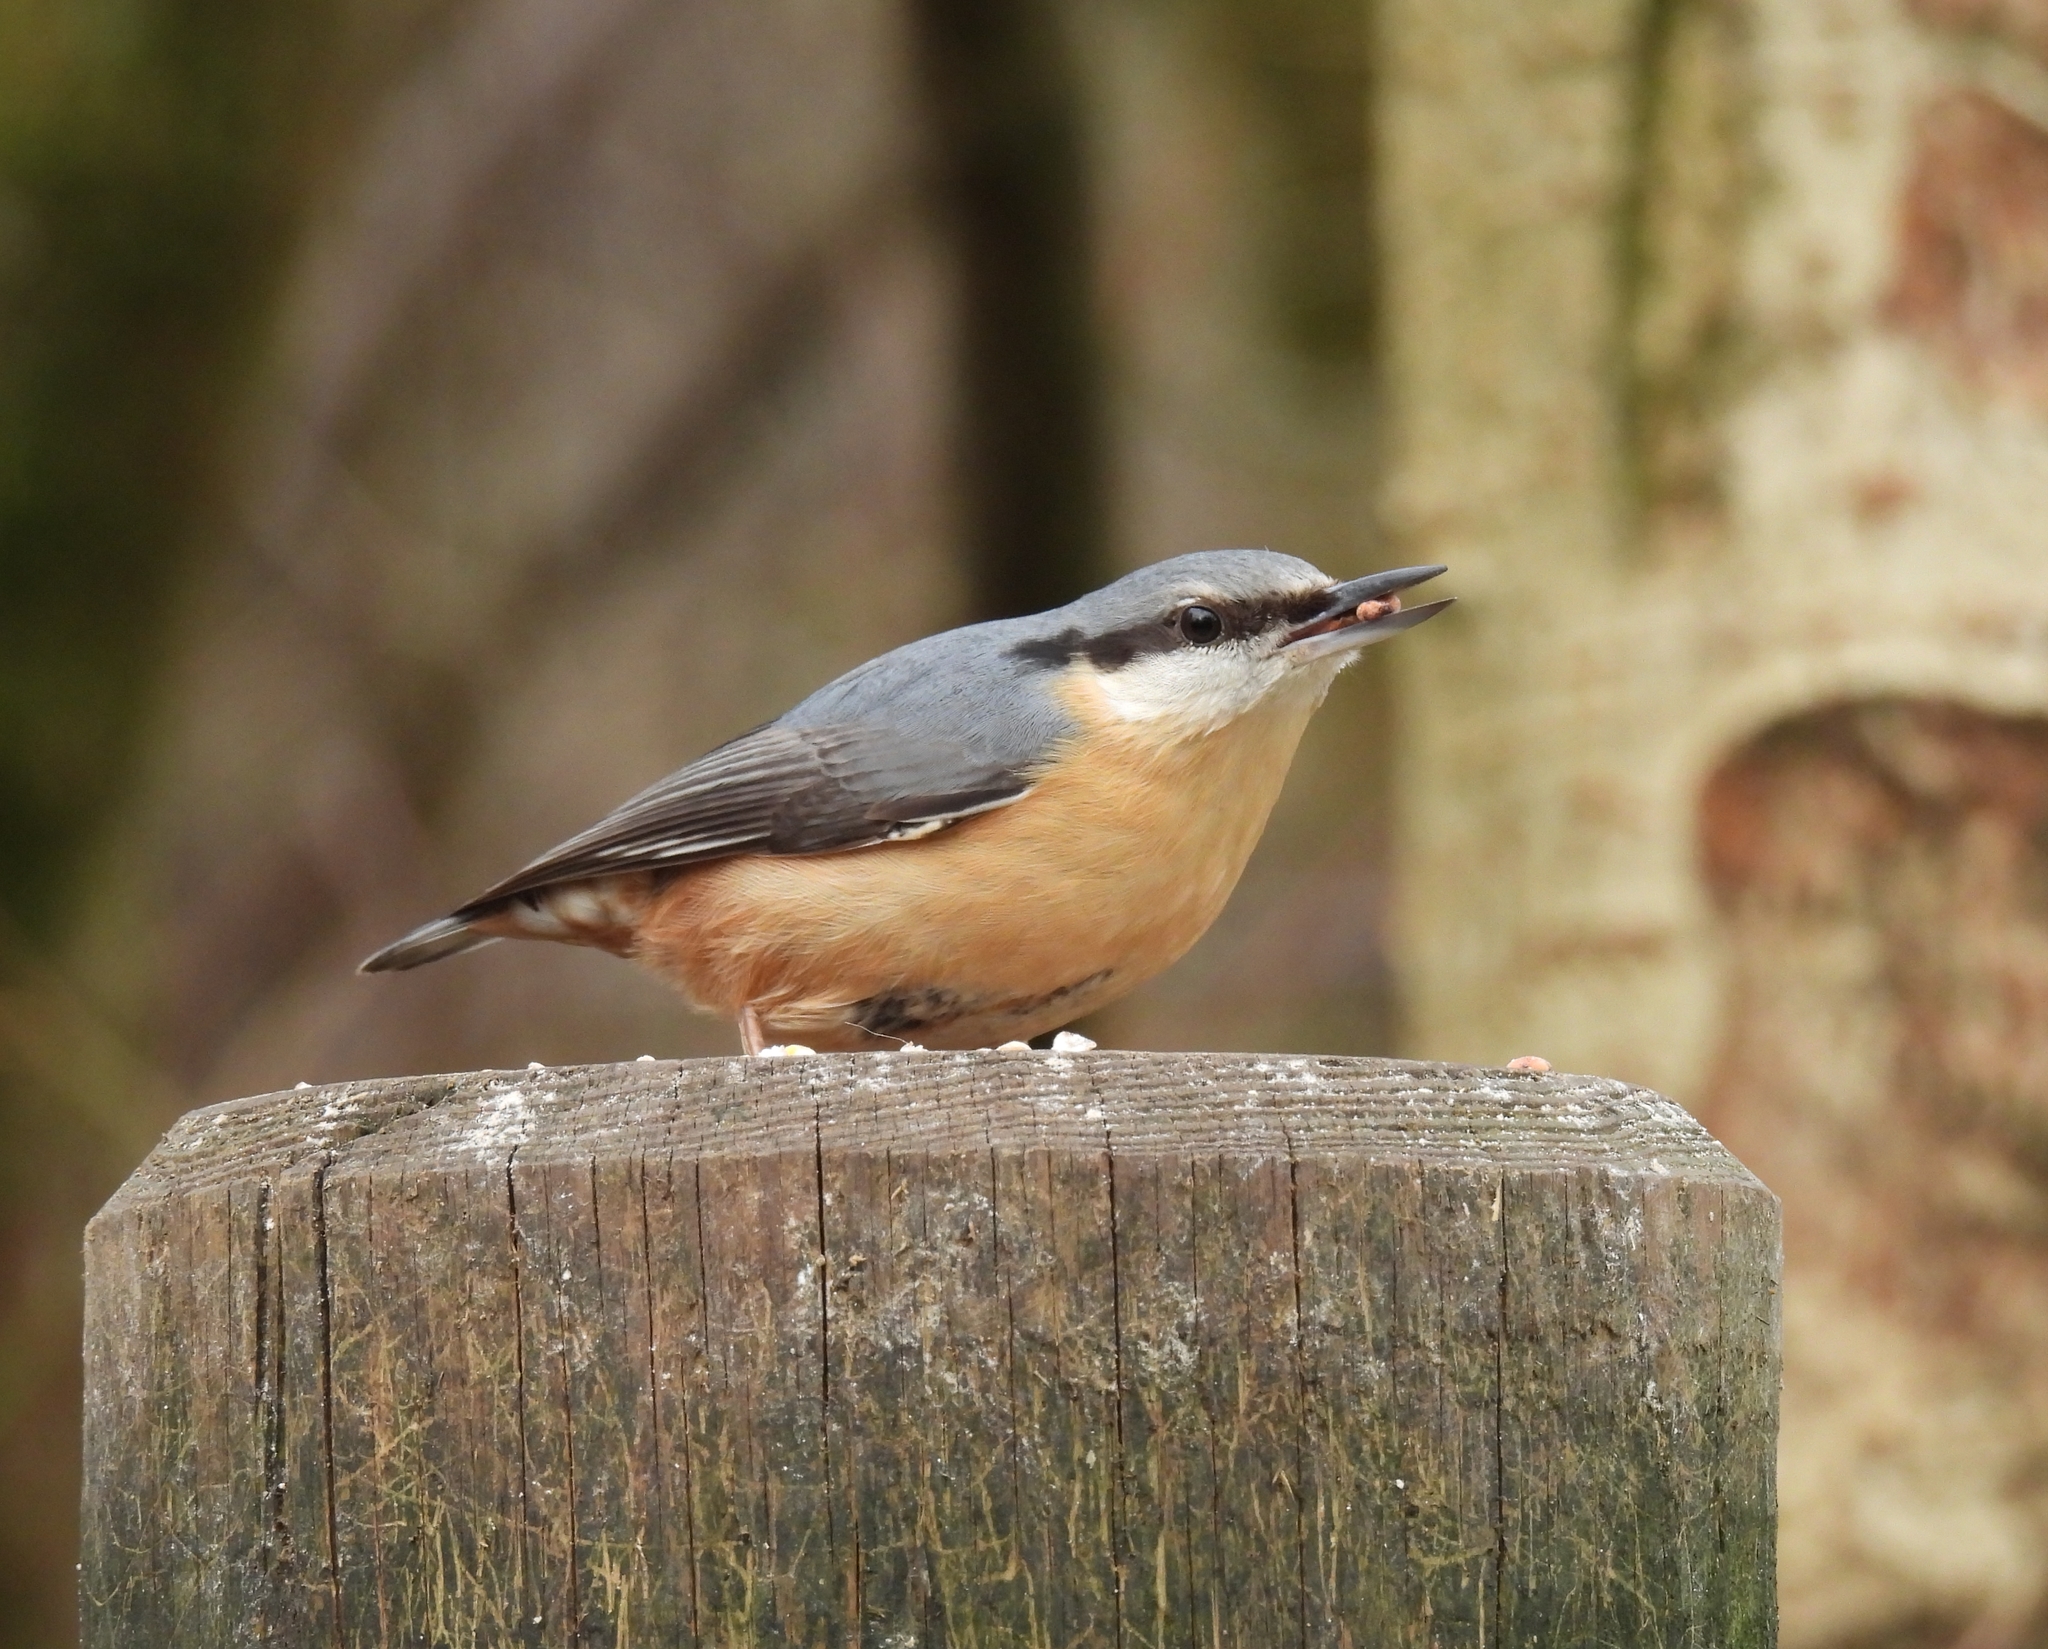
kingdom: Animalia
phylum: Chordata
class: Aves
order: Passeriformes
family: Sittidae
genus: Sitta
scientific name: Sitta europaea
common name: Eurasian nuthatch
